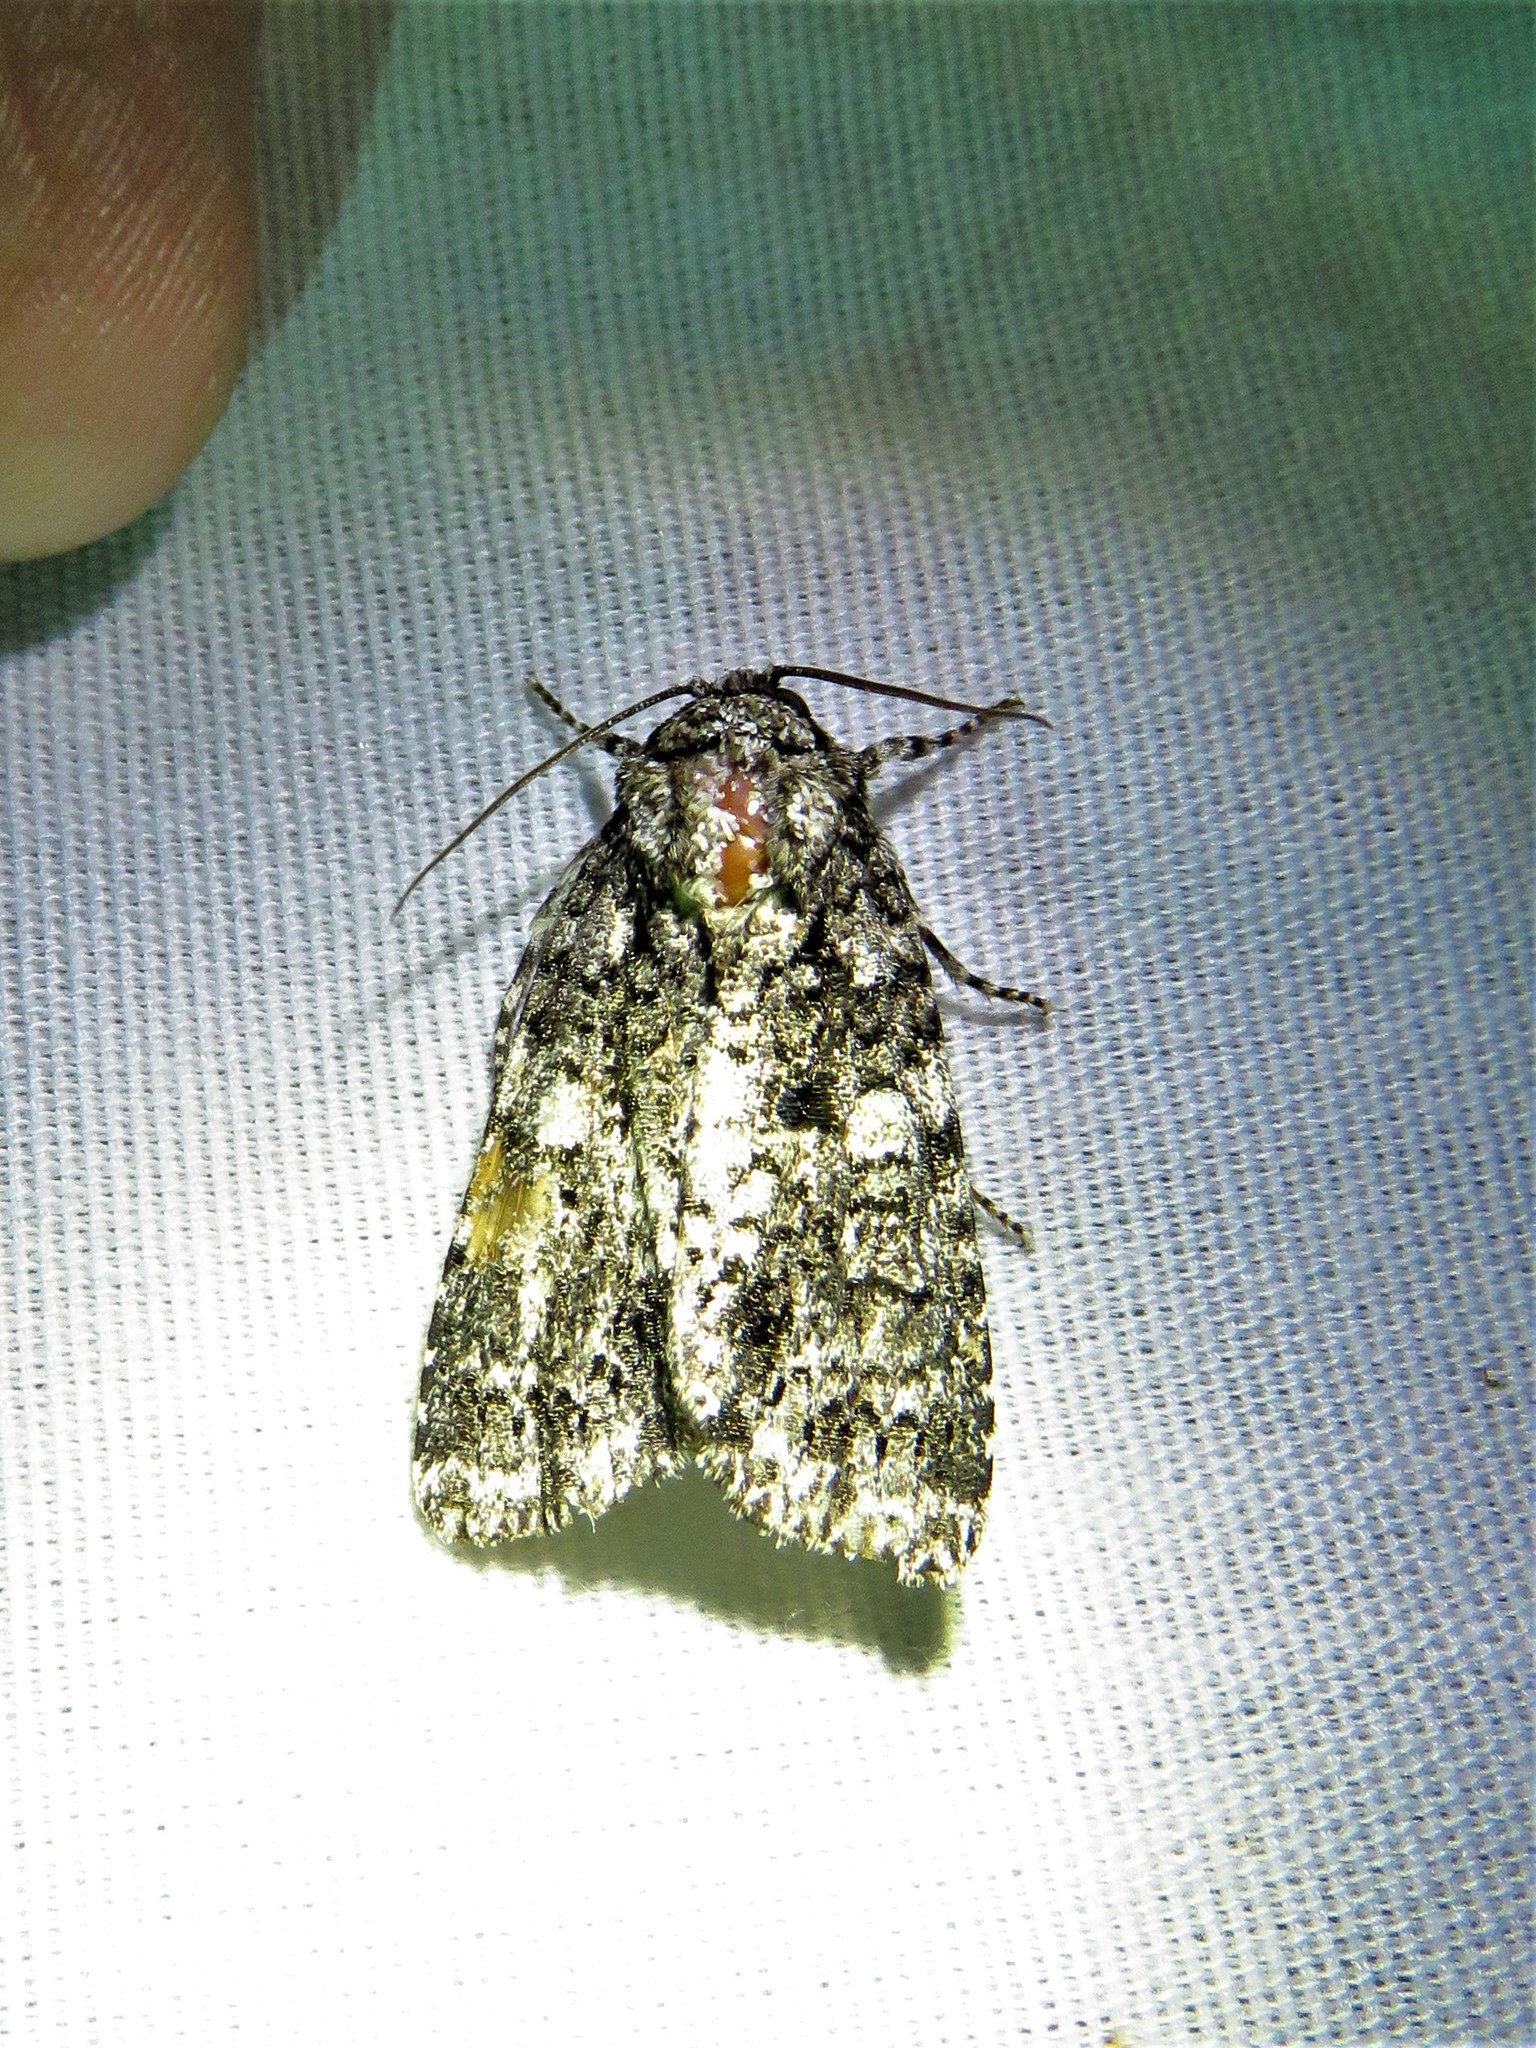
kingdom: Animalia
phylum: Arthropoda
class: Insecta
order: Lepidoptera
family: Noctuidae
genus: Acronicta
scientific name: Acronicta afflicta
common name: Afflicted dagger moth
